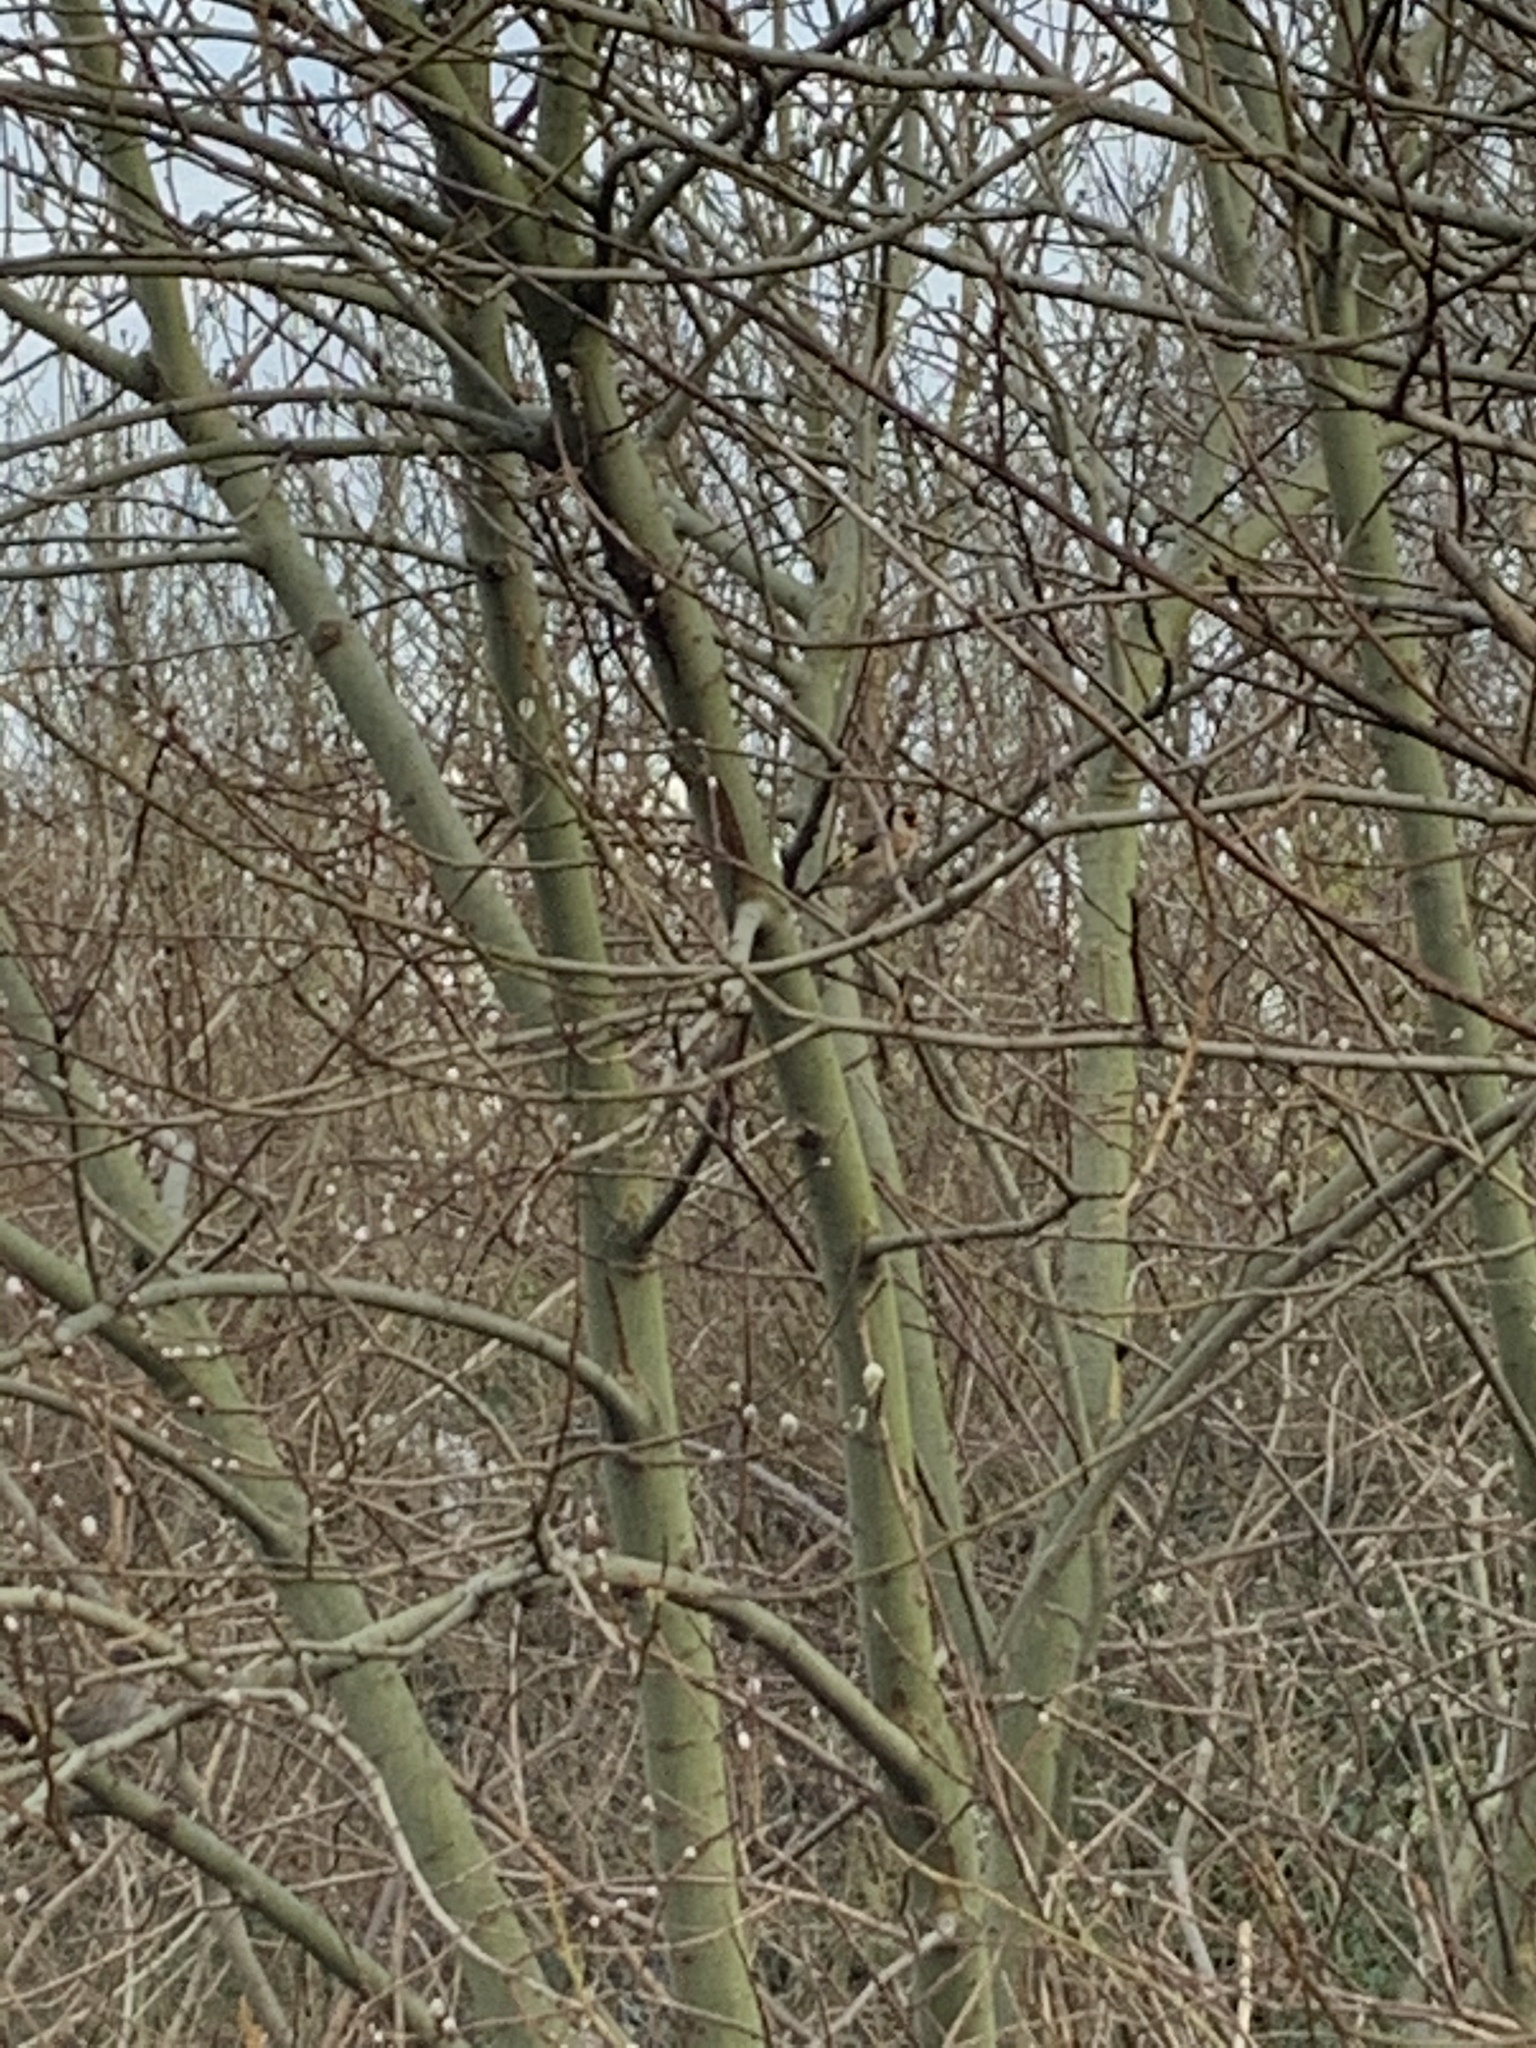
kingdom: Animalia
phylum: Chordata
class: Aves
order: Passeriformes
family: Fringillidae
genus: Carduelis
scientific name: Carduelis carduelis
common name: European goldfinch
